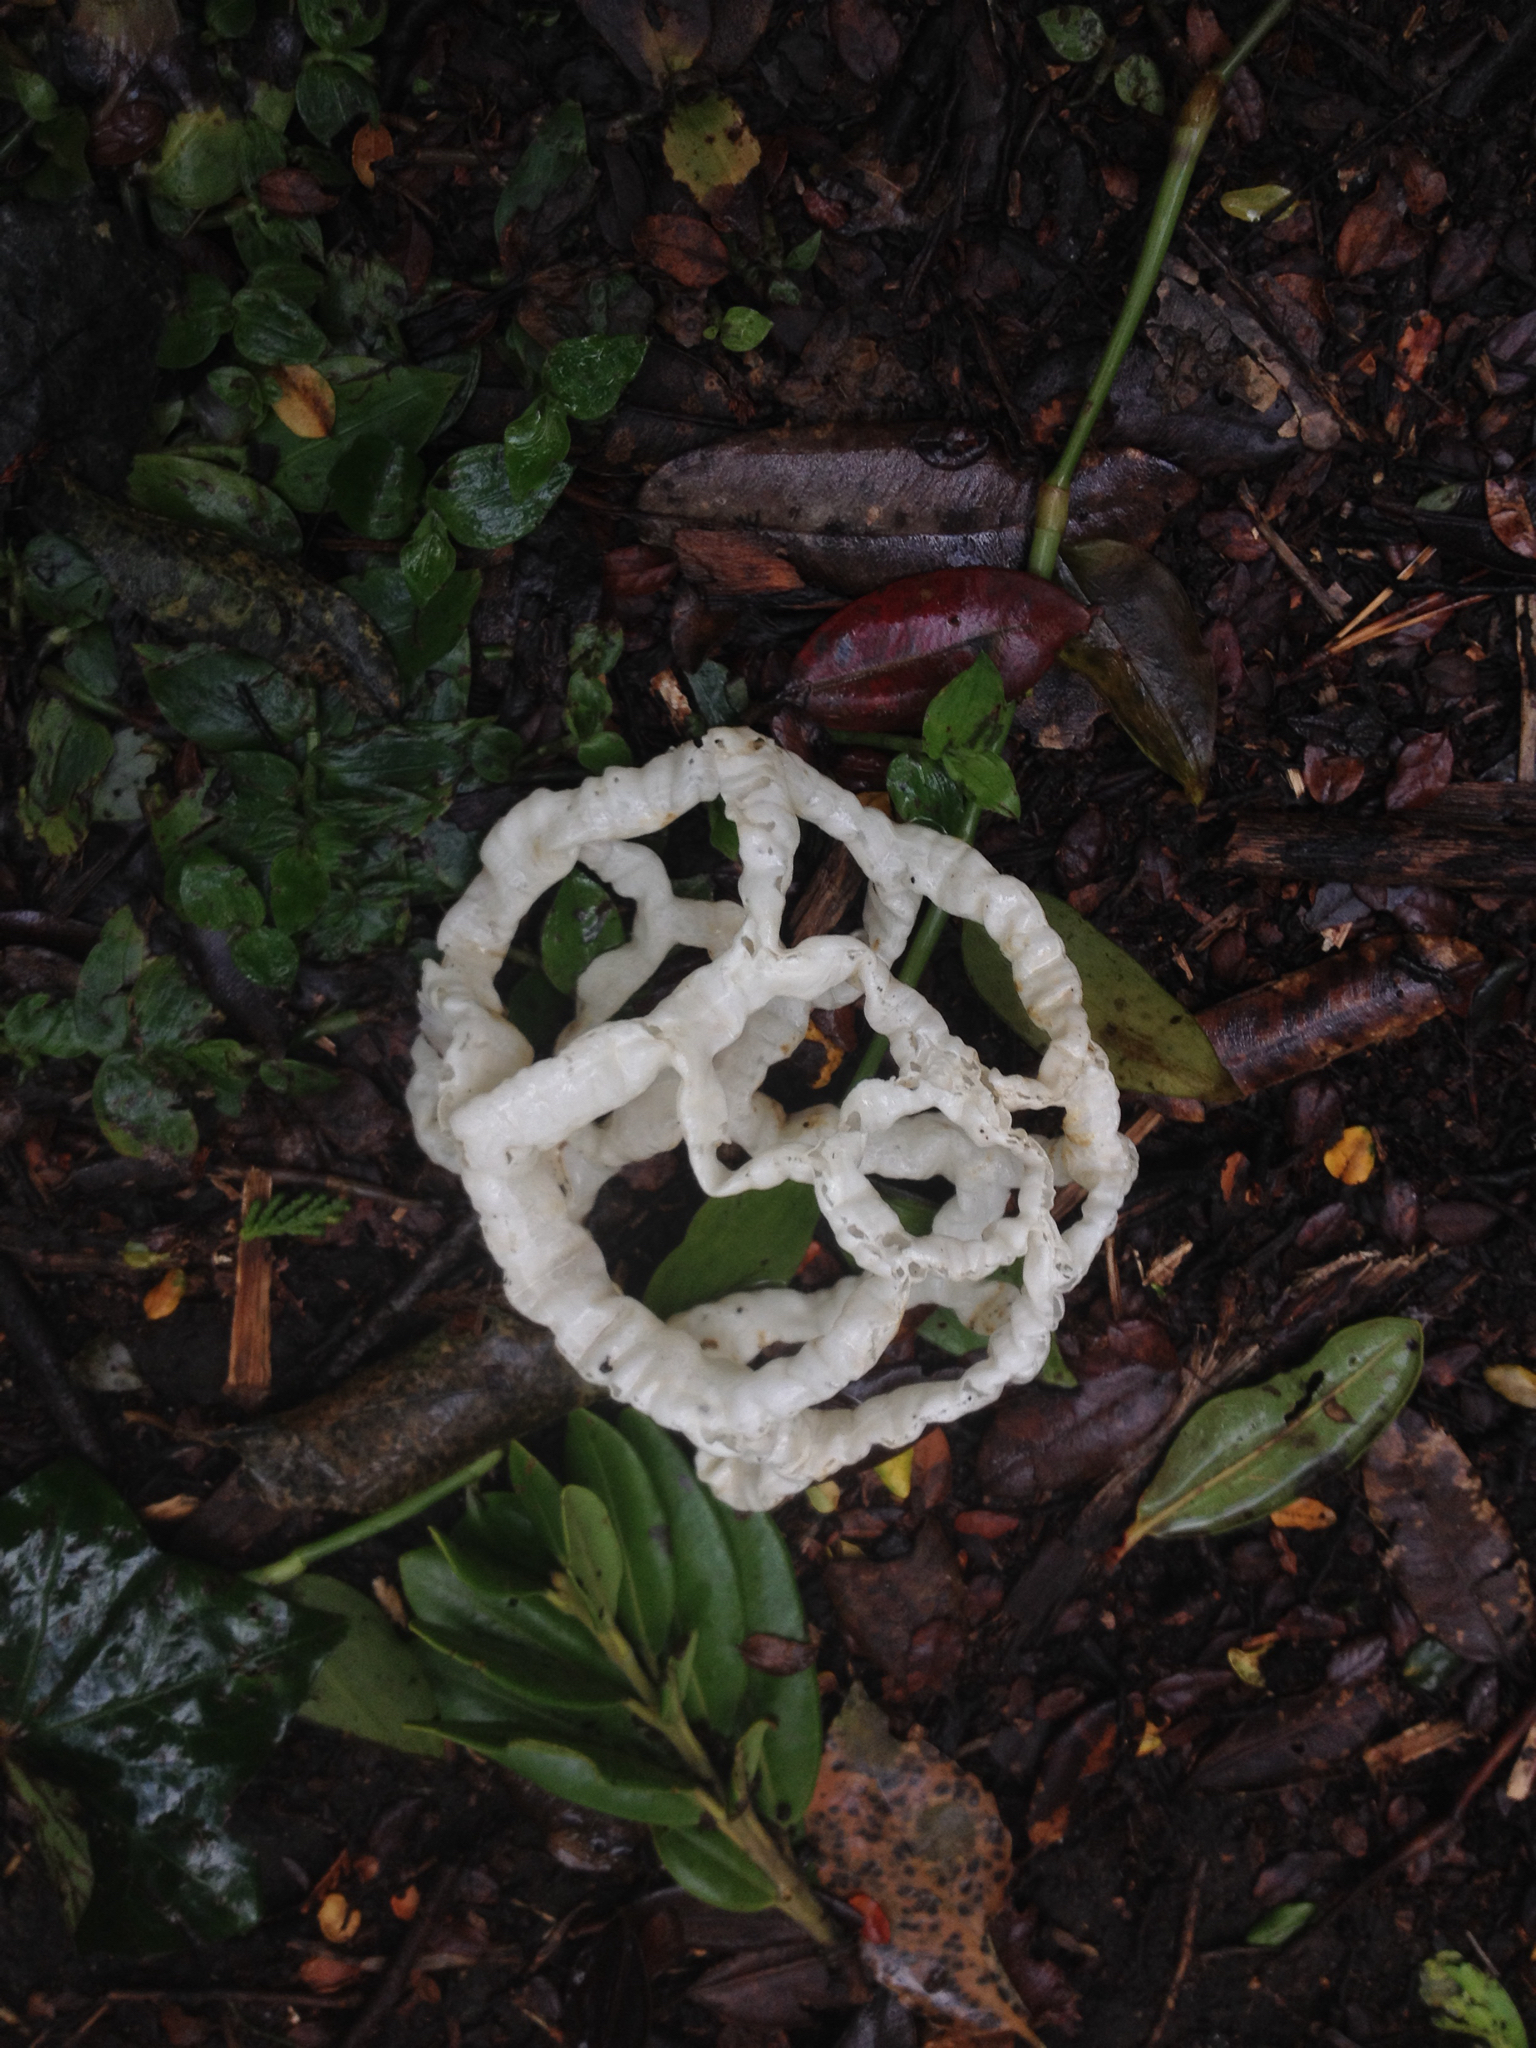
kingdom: Fungi
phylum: Basidiomycota
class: Agaricomycetes
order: Phallales
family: Phallaceae
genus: Ileodictyon
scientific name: Ileodictyon cibarium
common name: Basket fungus
